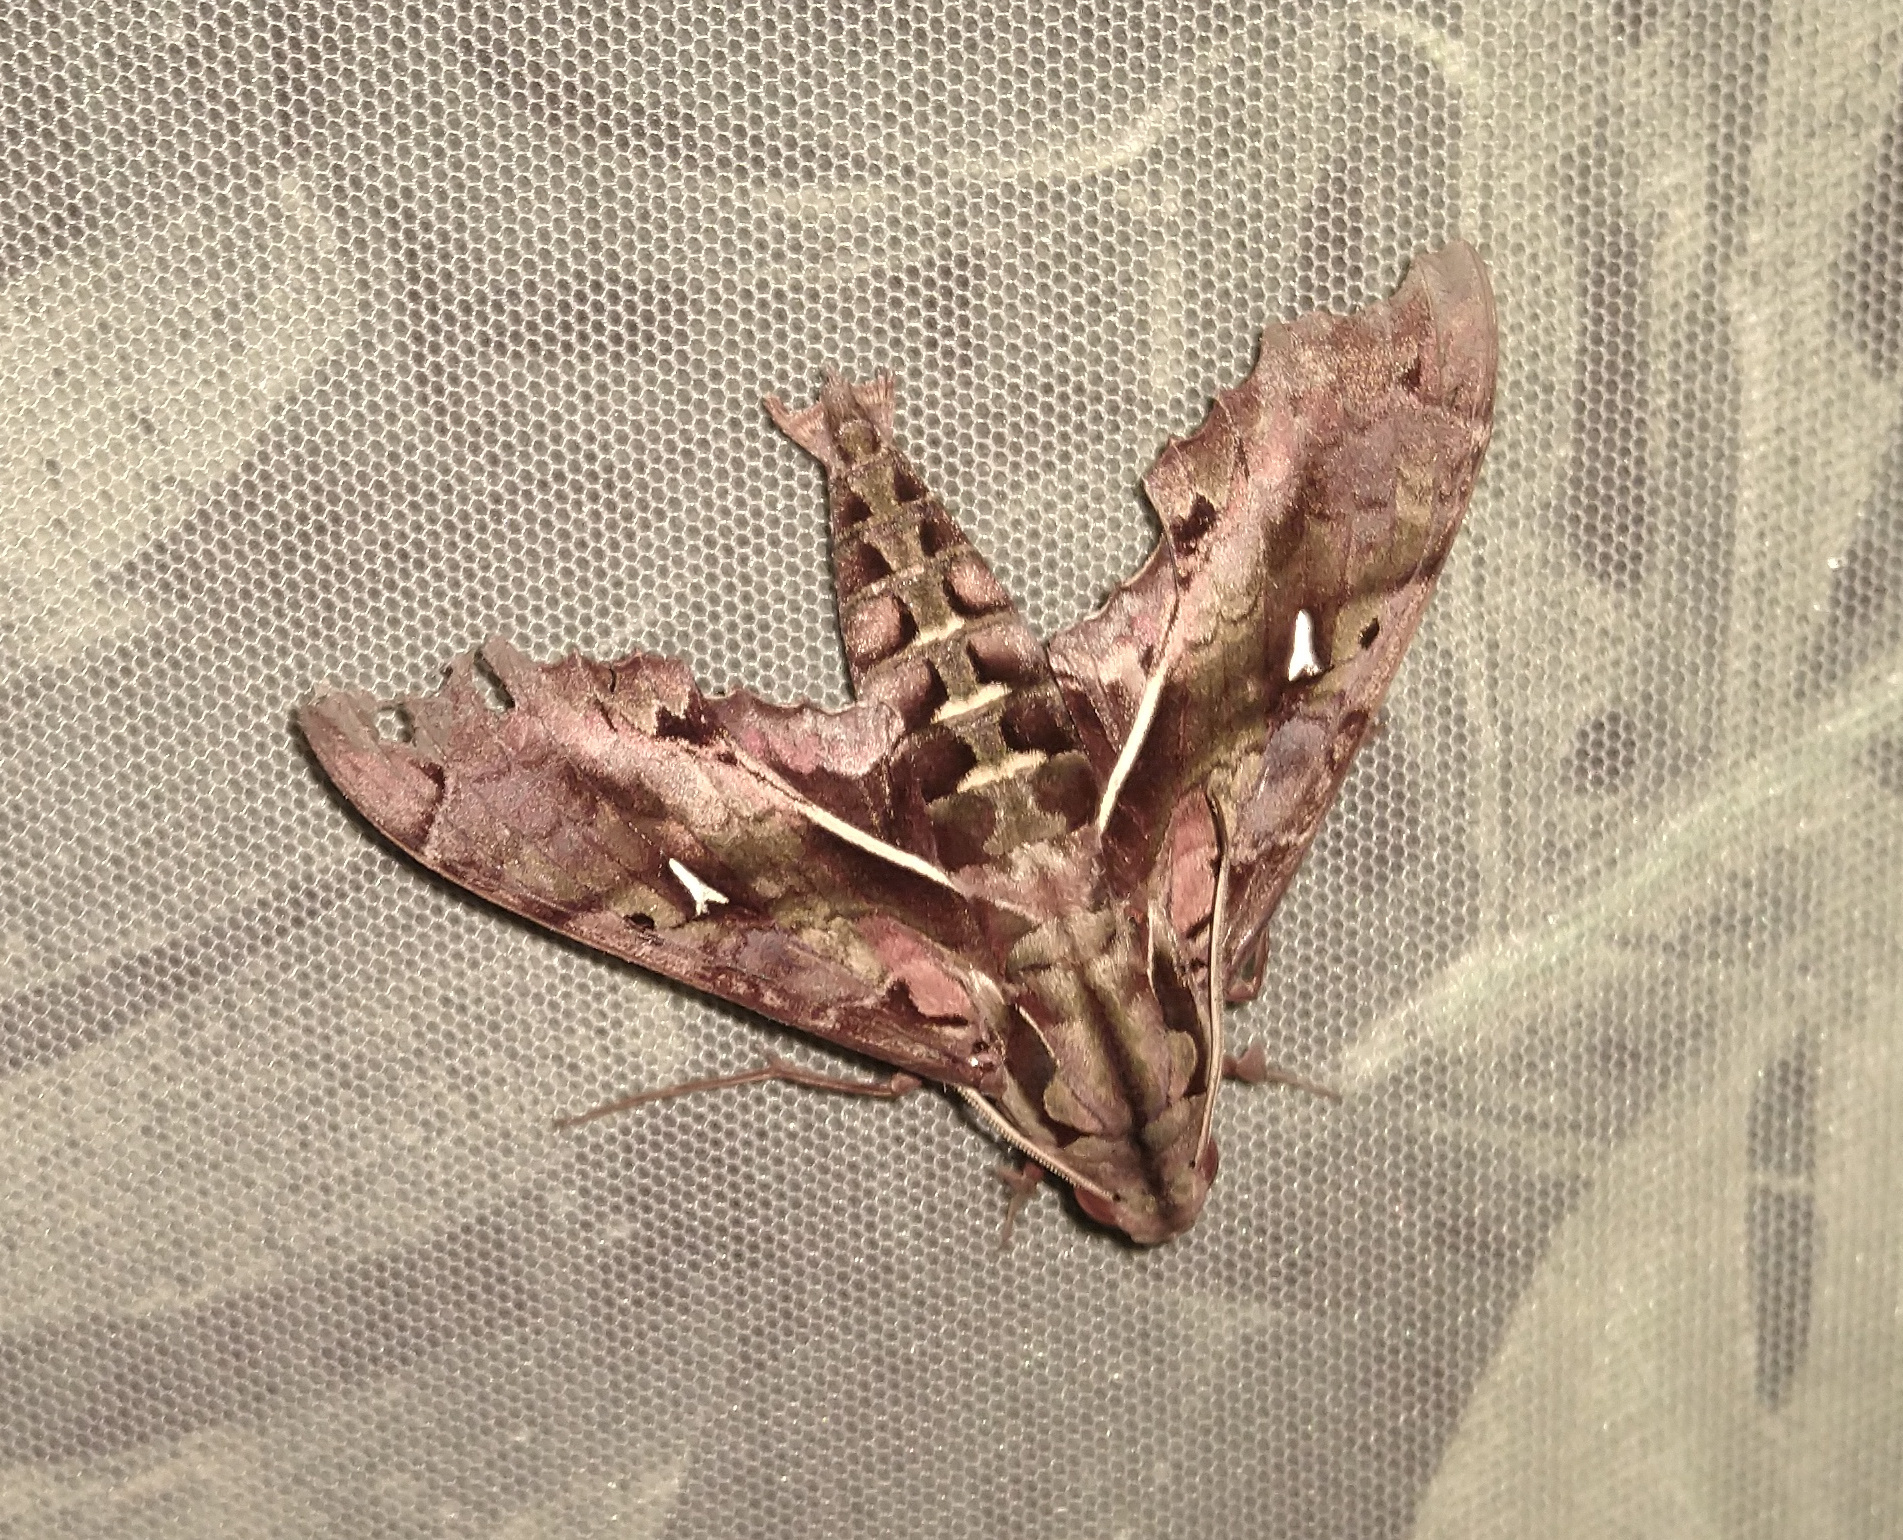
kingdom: Animalia
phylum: Arthropoda
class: Insecta
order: Lepidoptera
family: Sphingidae
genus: Hemeroplanes
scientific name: Hemeroplanes ornatus
